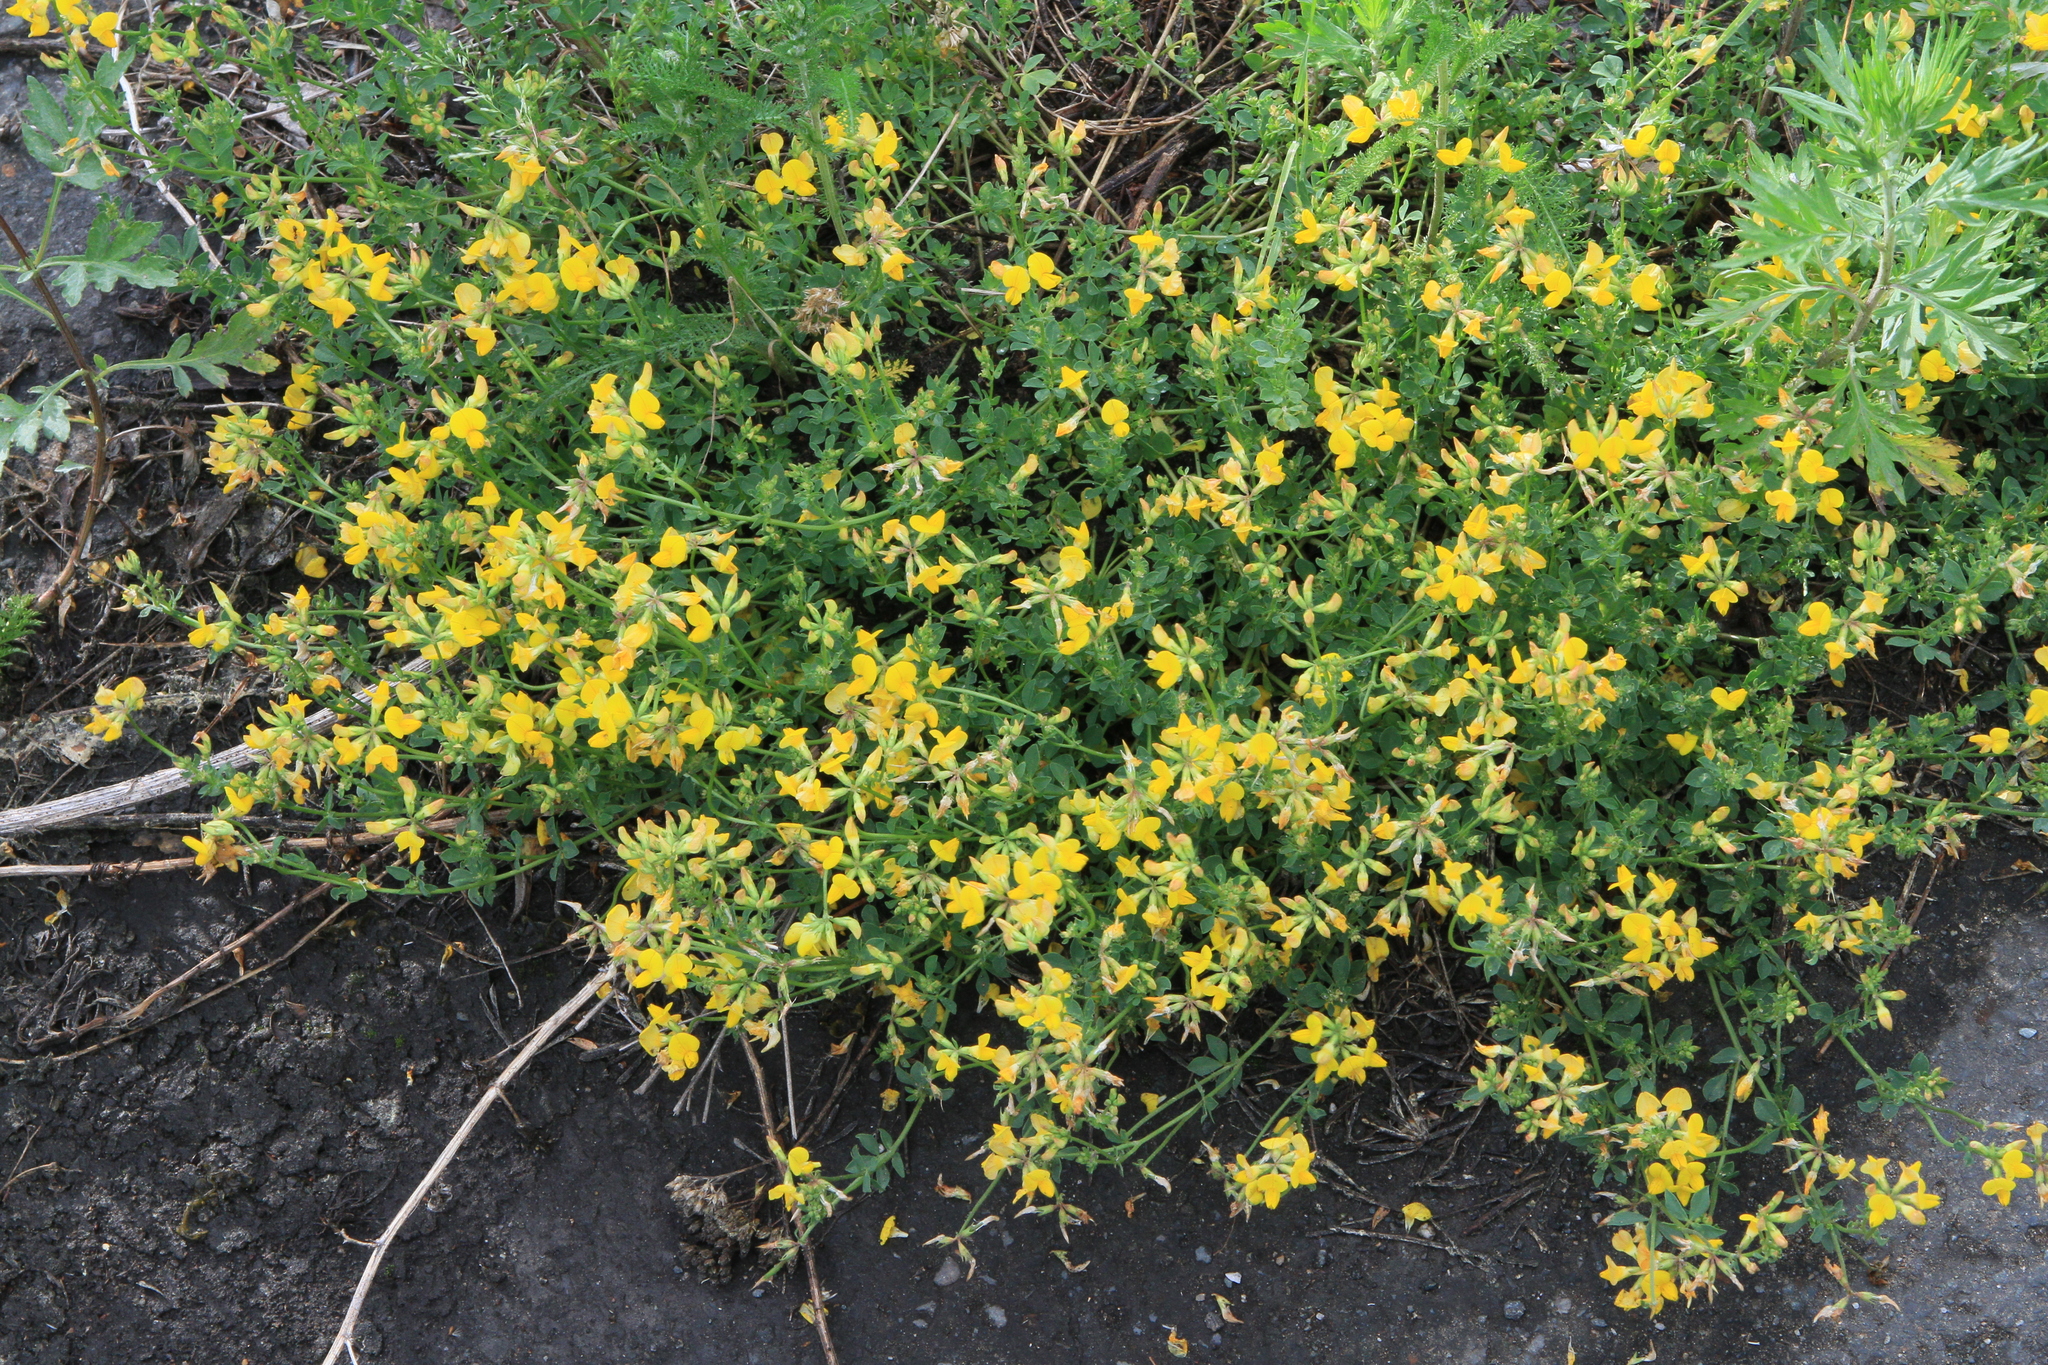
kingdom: Plantae
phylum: Tracheophyta
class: Magnoliopsida
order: Fabales
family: Fabaceae
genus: Lotus
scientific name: Lotus corniculatus
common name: Common bird's-foot-trefoil
